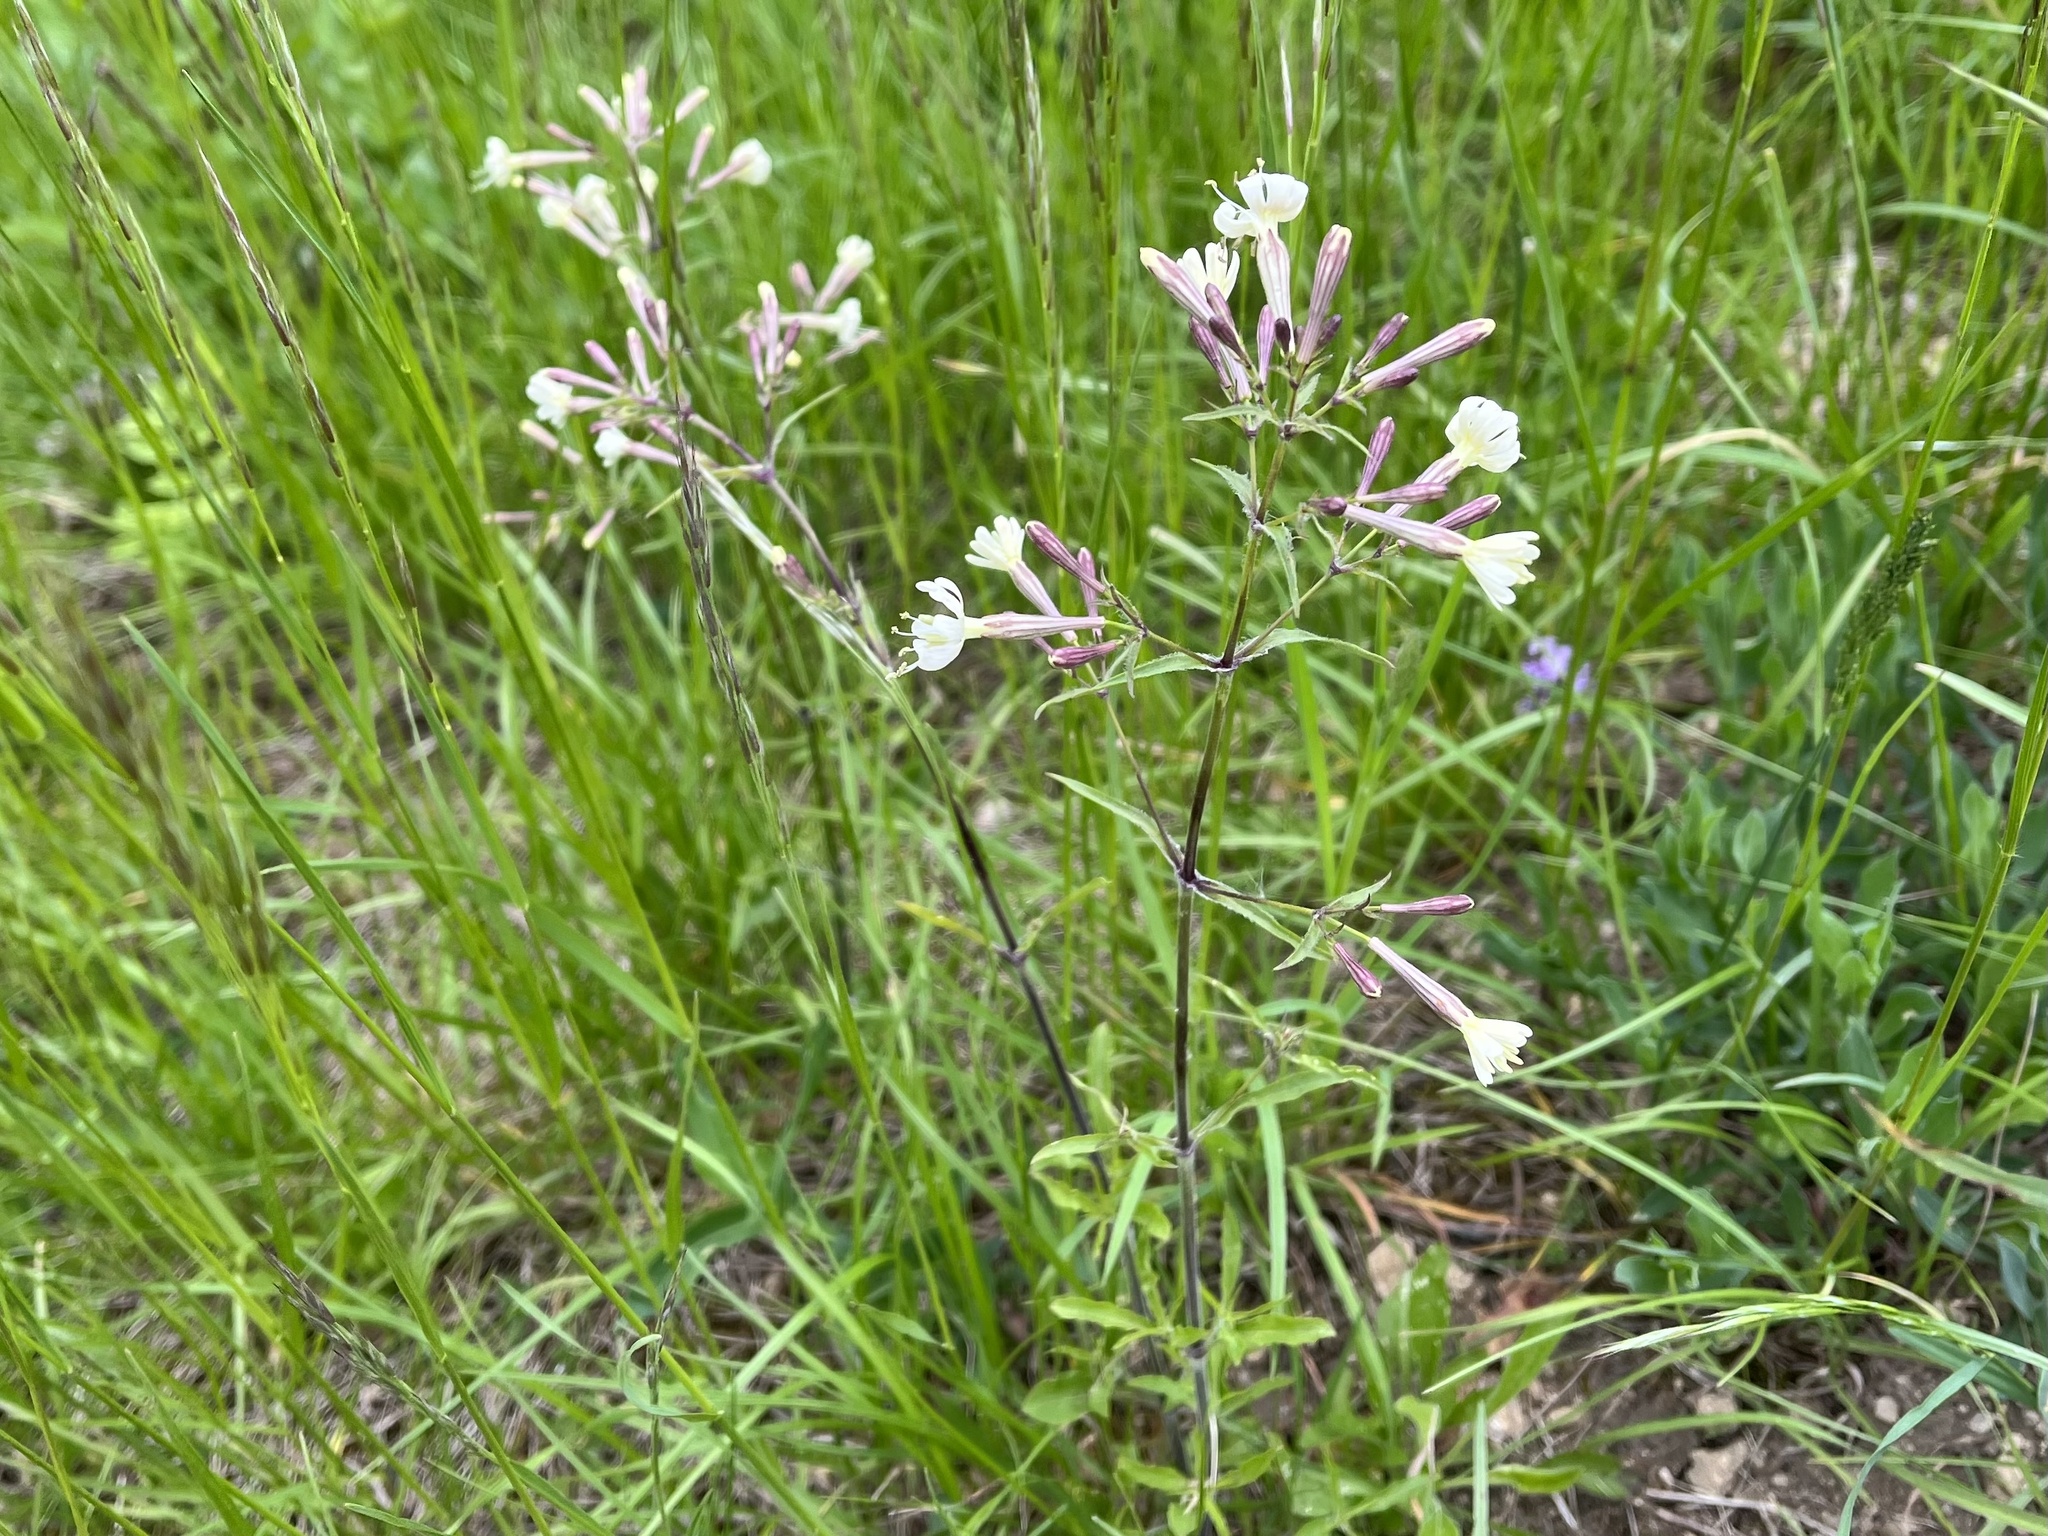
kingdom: Plantae
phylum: Tracheophyta
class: Magnoliopsida
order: Caryophyllales
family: Caryophyllaceae
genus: Silene
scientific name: Silene nemoralis
